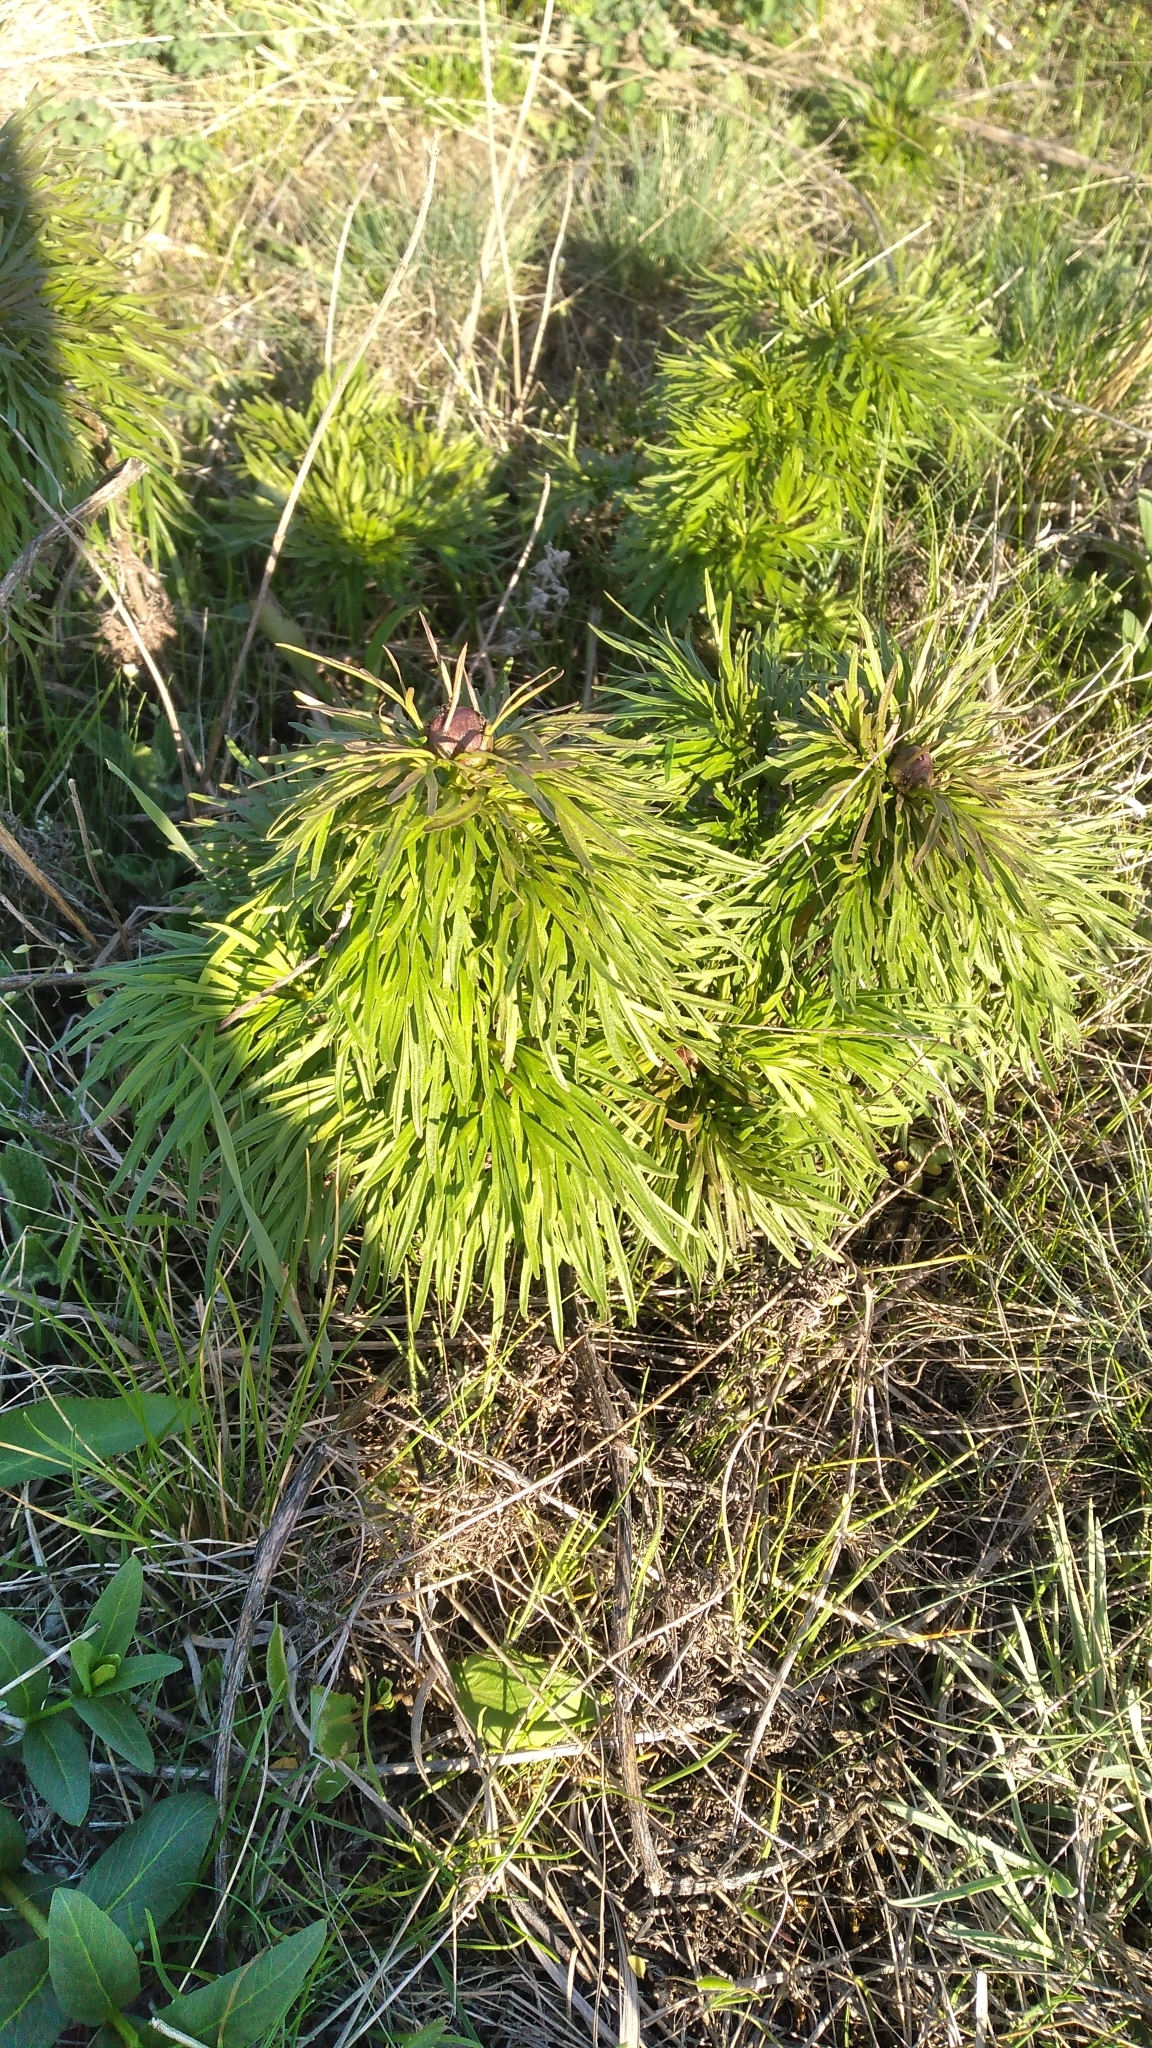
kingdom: Plantae
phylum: Tracheophyta
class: Magnoliopsida
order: Saxifragales
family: Paeoniaceae
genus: Paeonia
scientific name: Paeonia tenuifolia
